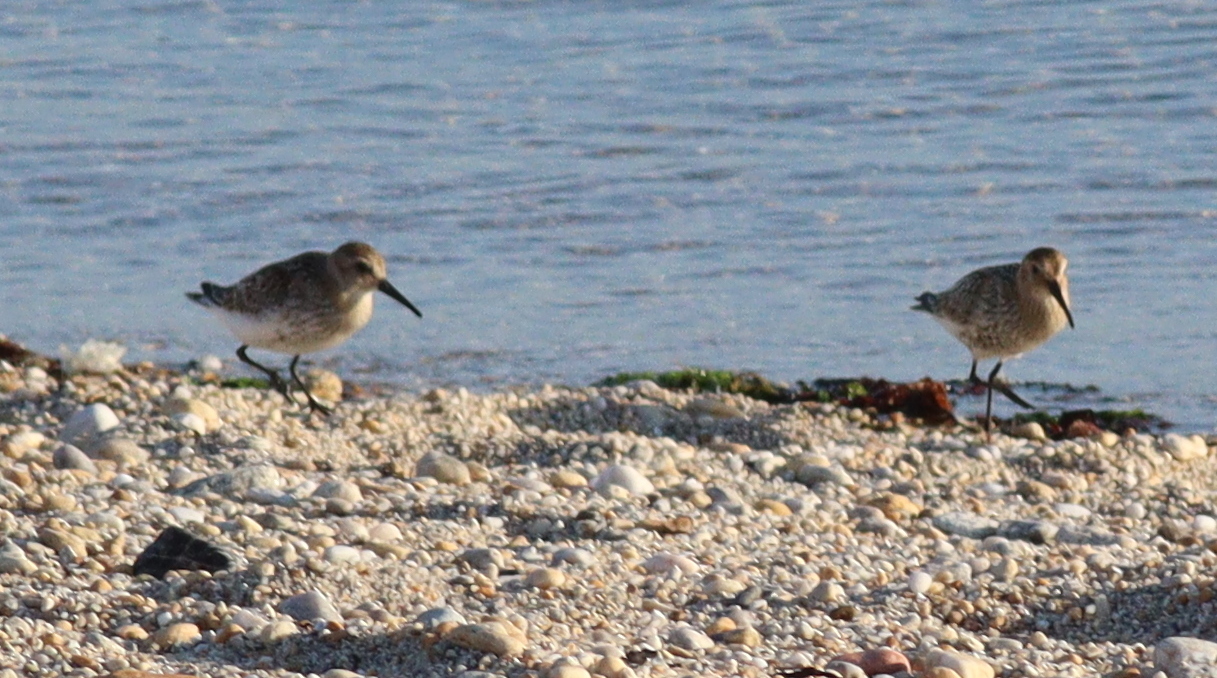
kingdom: Animalia
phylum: Chordata
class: Aves
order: Charadriiformes
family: Scolopacidae
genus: Calidris
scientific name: Calidris alpina
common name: Dunlin
